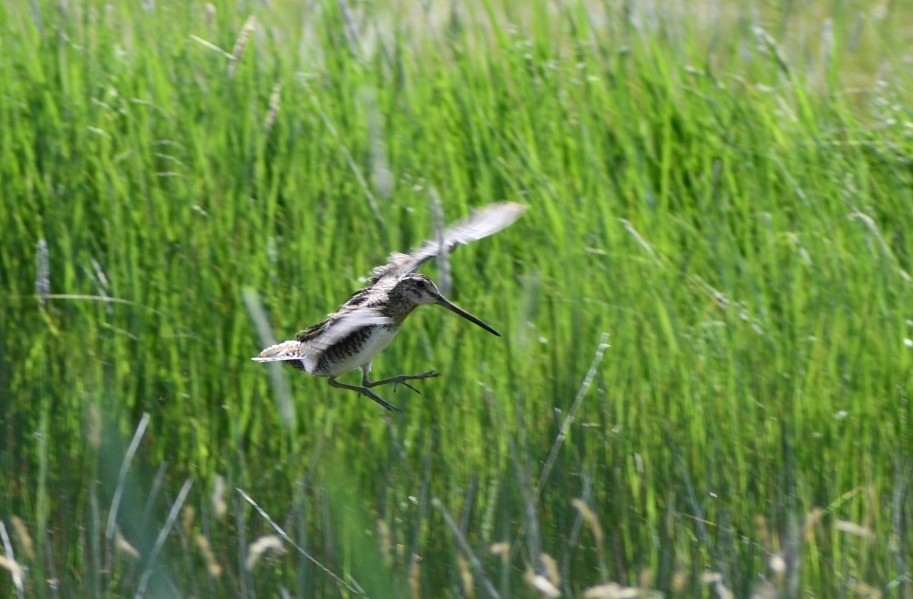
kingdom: Animalia
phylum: Chordata
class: Aves
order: Charadriiformes
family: Scolopacidae
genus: Gallinago
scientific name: Gallinago delicata
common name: Wilson's snipe
